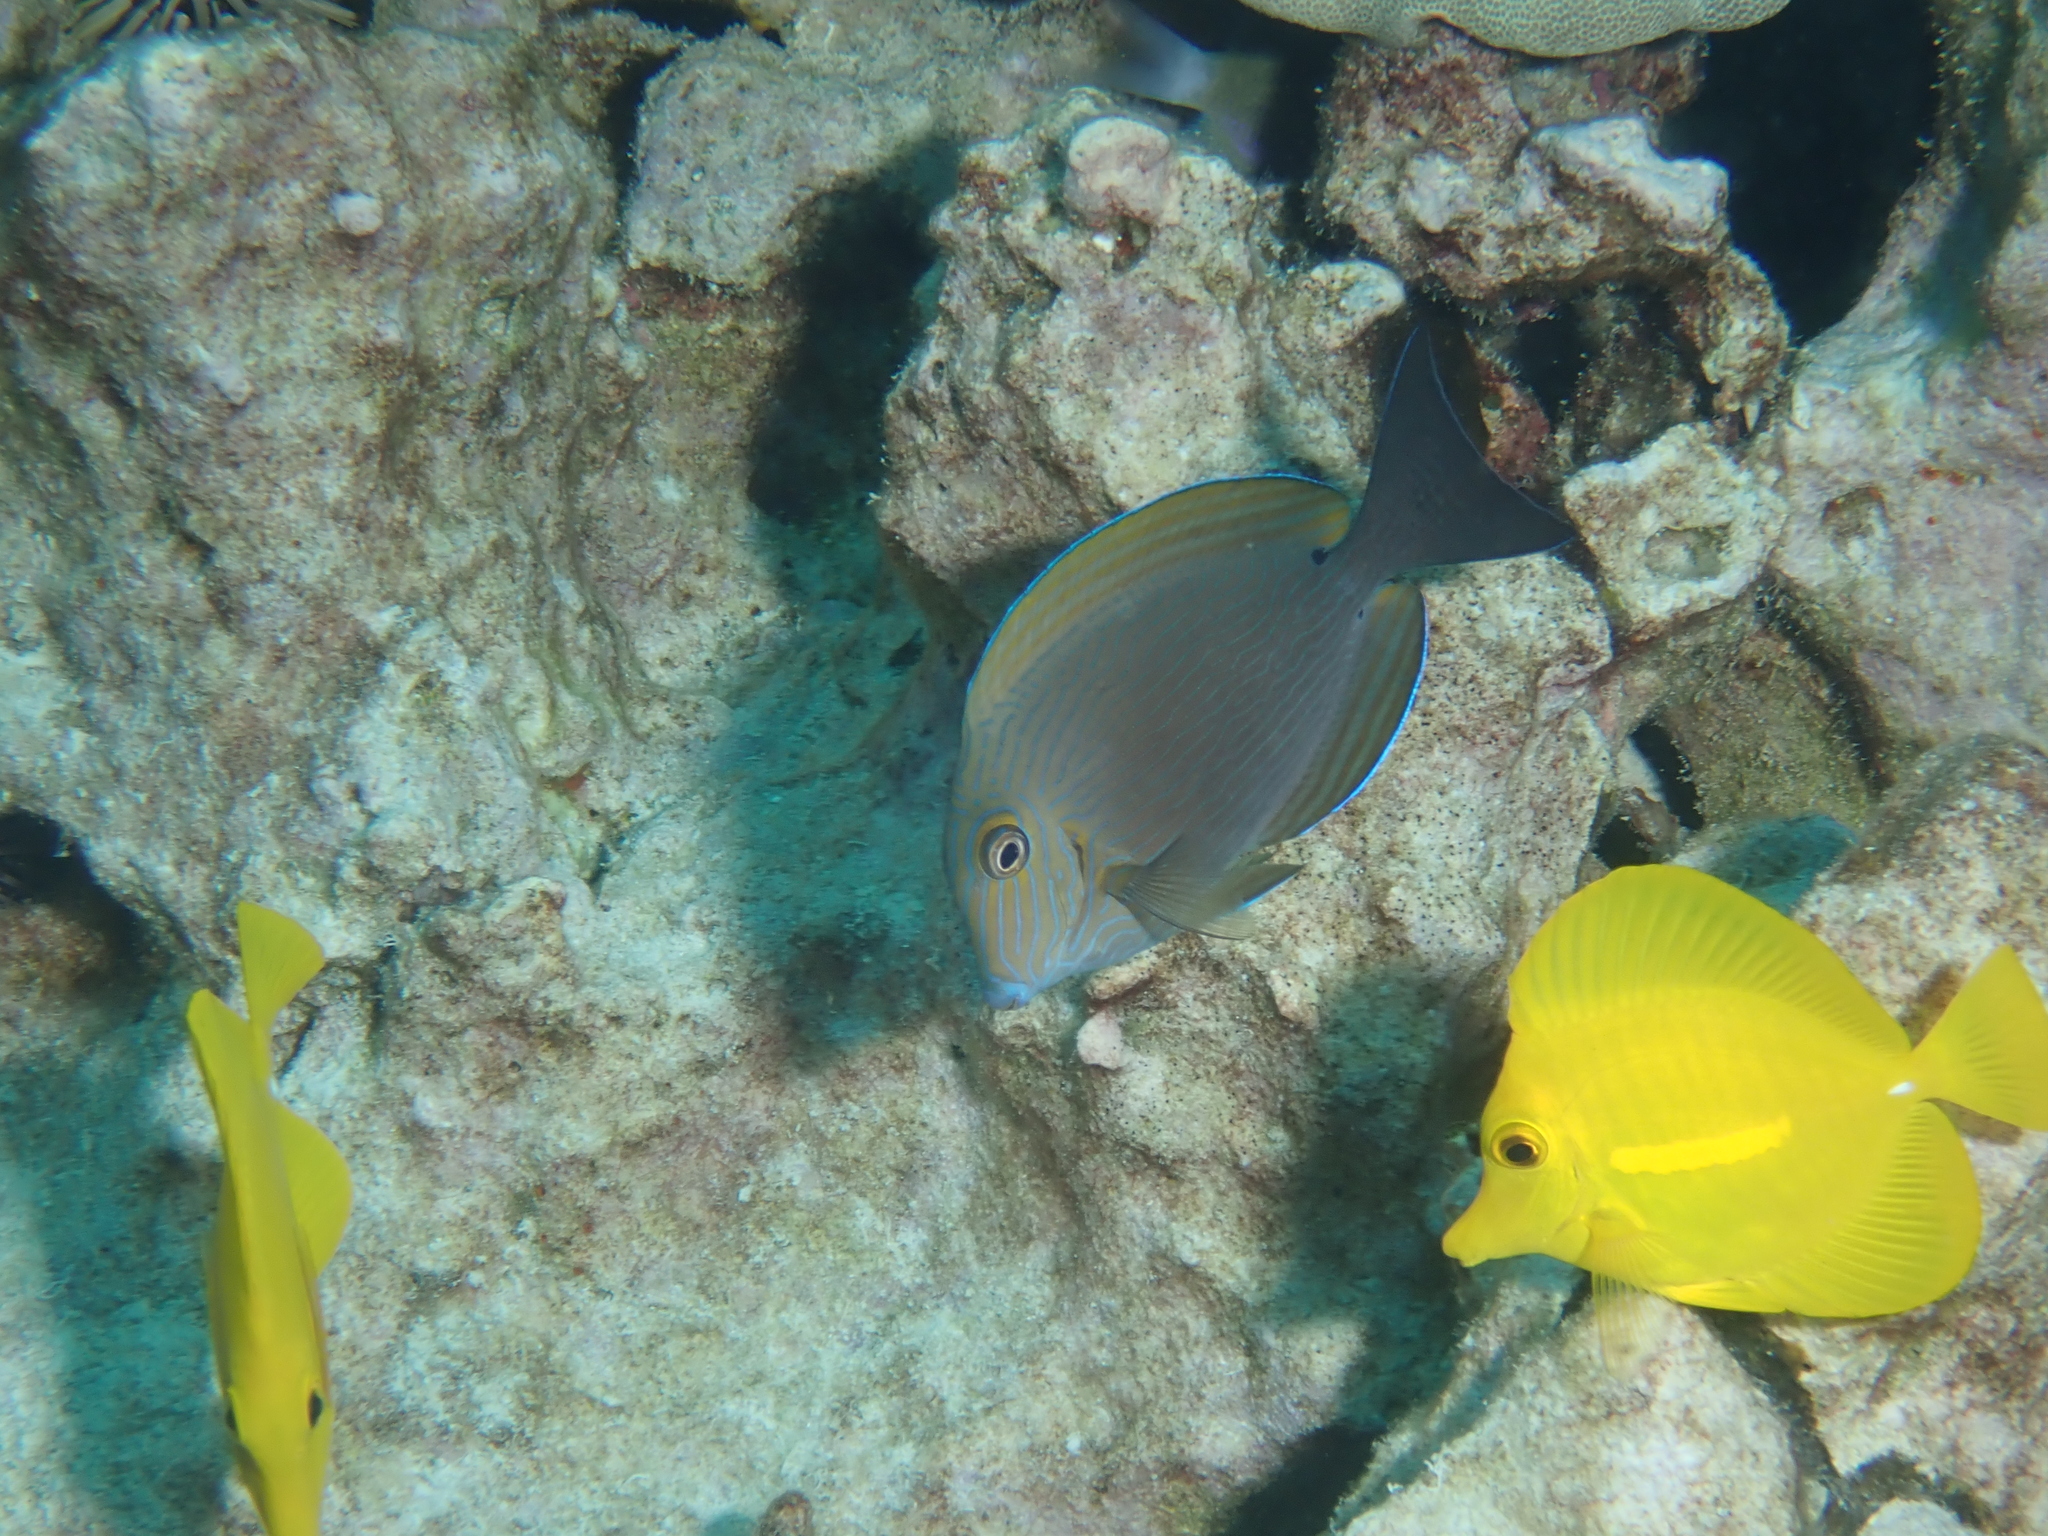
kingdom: Animalia
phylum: Chordata
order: Perciformes
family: Acanthuridae
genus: Acanthurus
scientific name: Acanthurus nigroris
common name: Bluelined surgeonfish
